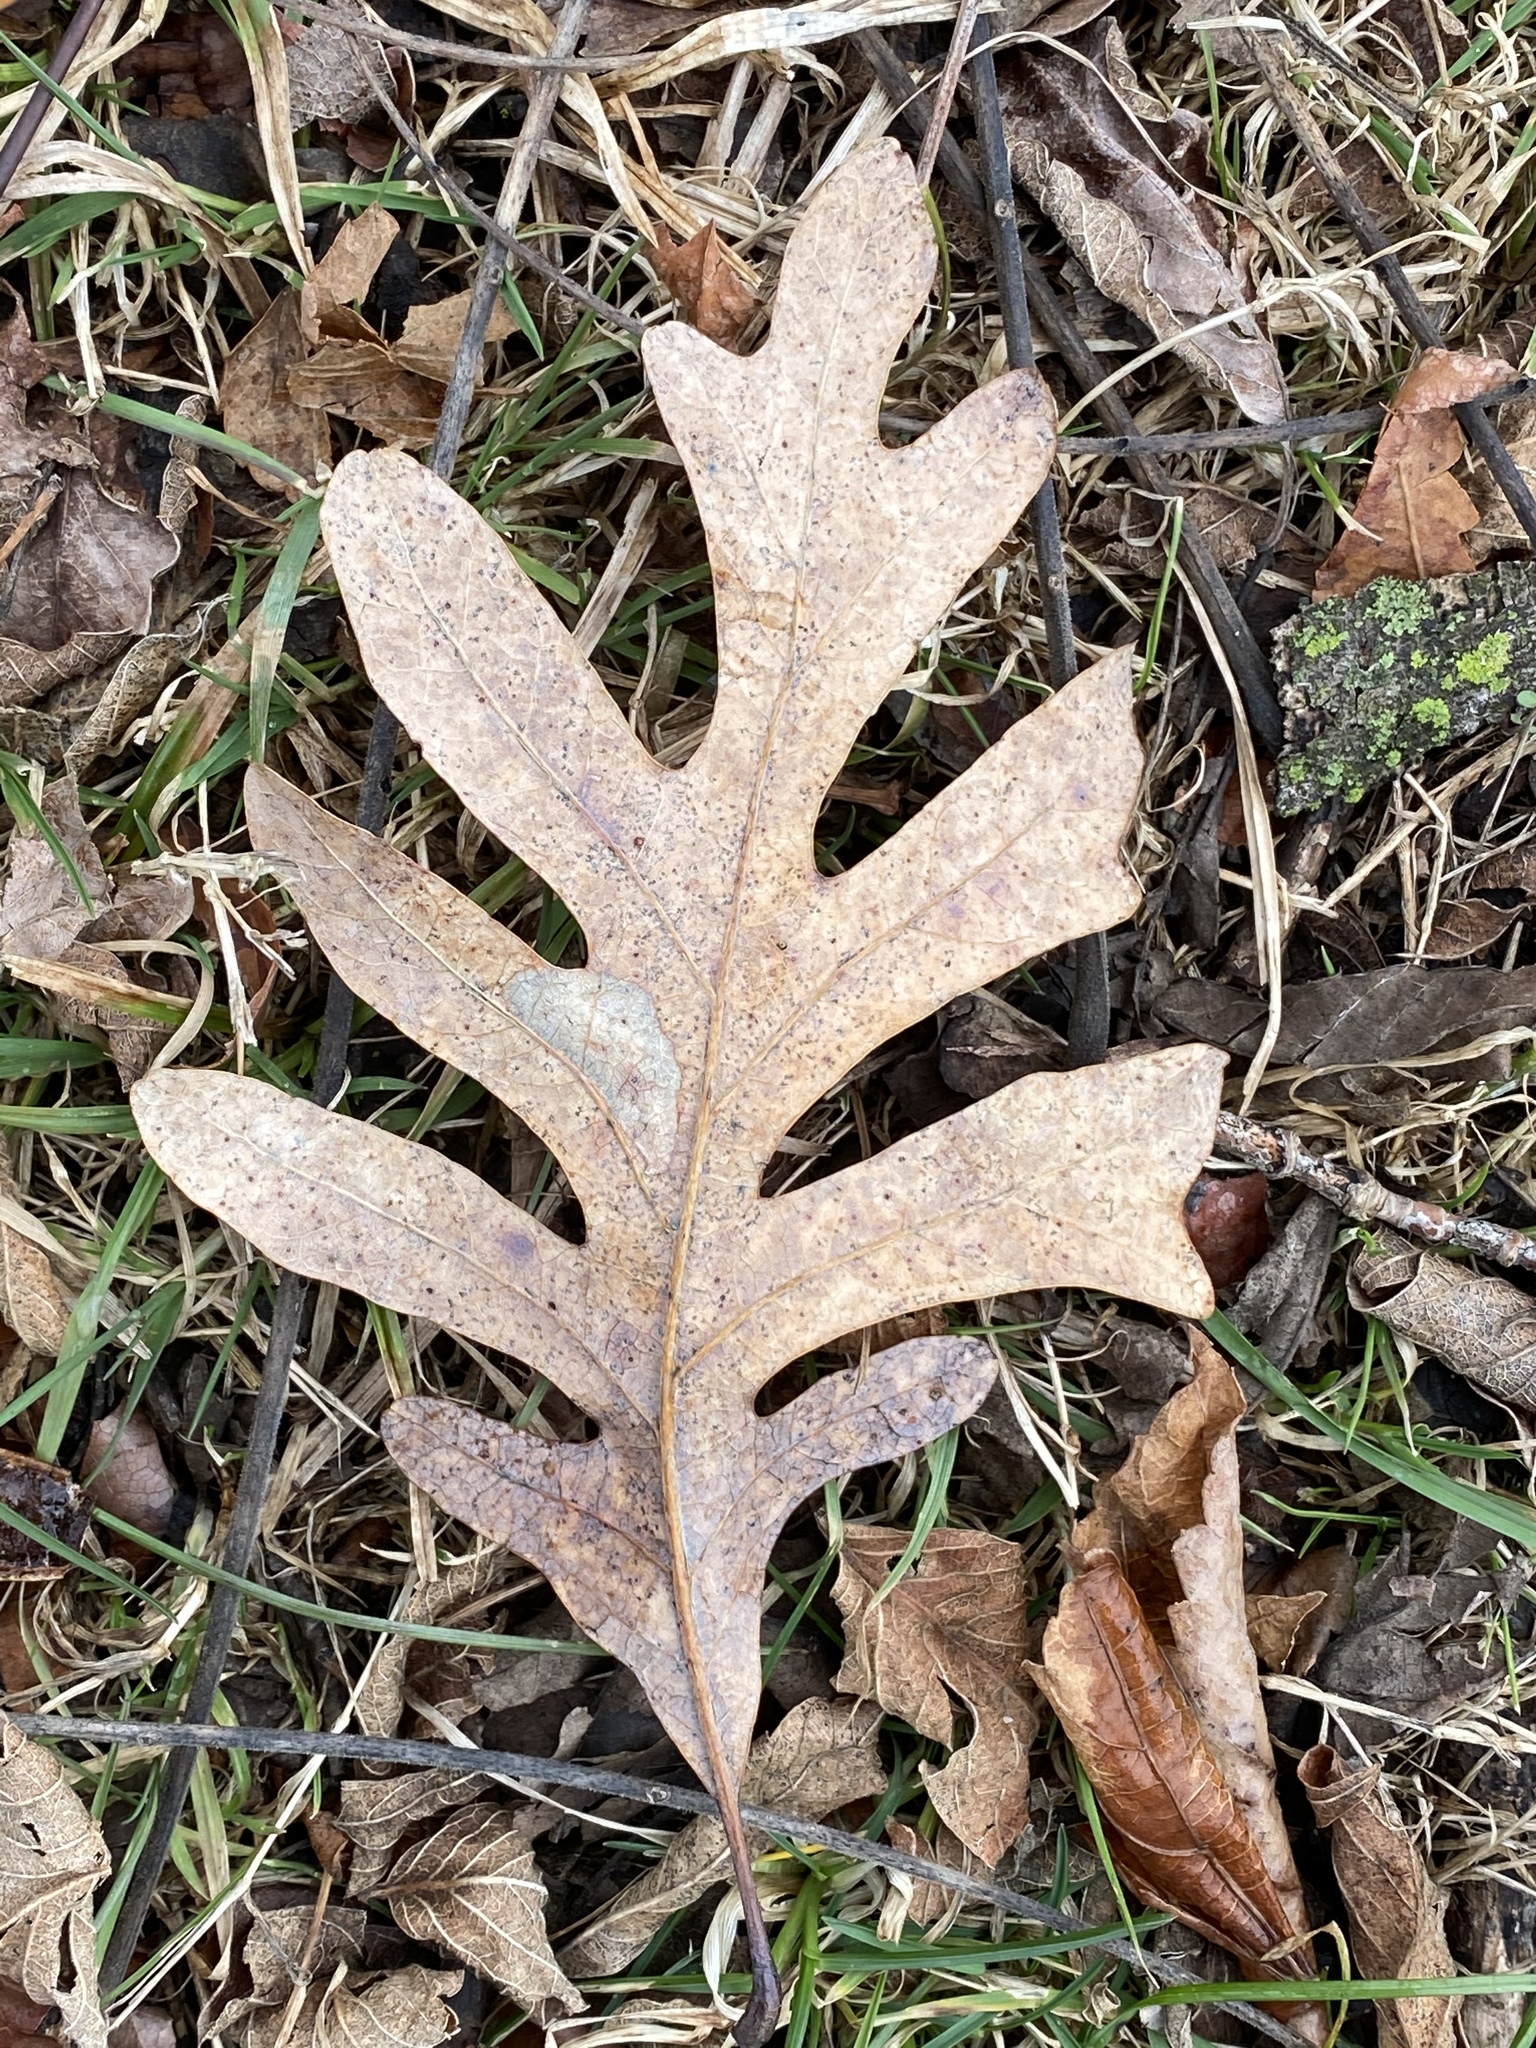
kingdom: Plantae
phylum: Tracheophyta
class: Magnoliopsida
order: Fagales
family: Fagaceae
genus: Quercus
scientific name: Quercus alba
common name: White oak
